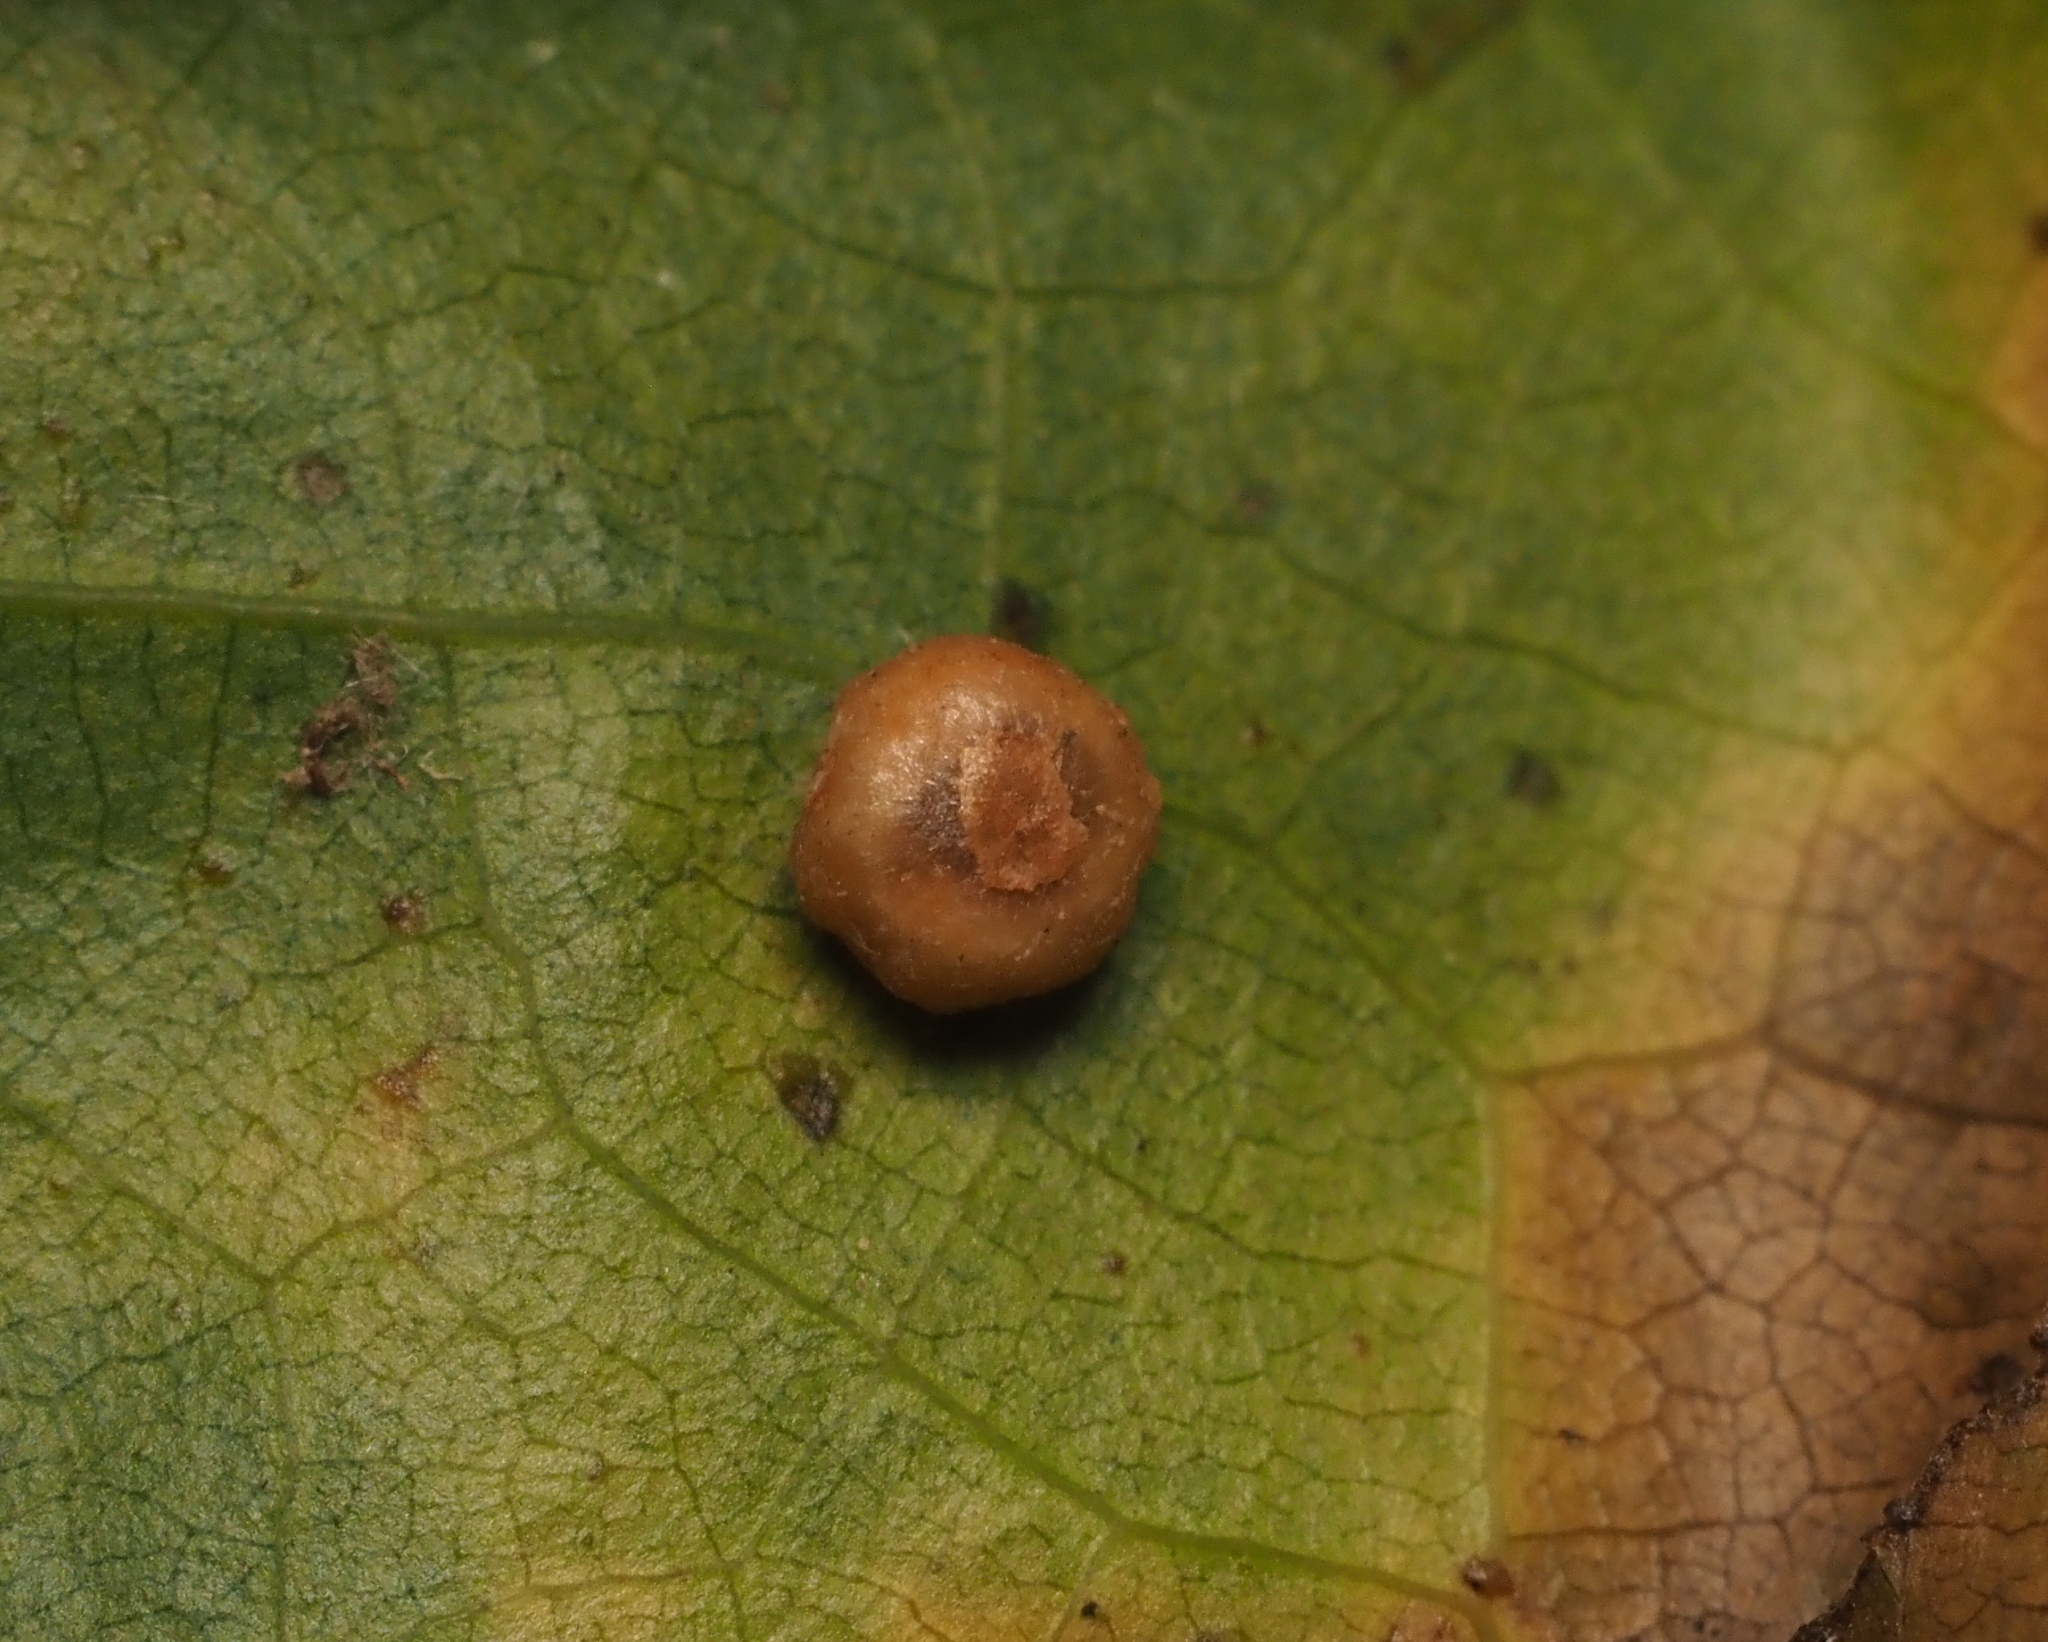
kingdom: Animalia
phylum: Arthropoda
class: Insecta
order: Diptera
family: Cecidomyiidae
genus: Polystepha
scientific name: Polystepha globosa
